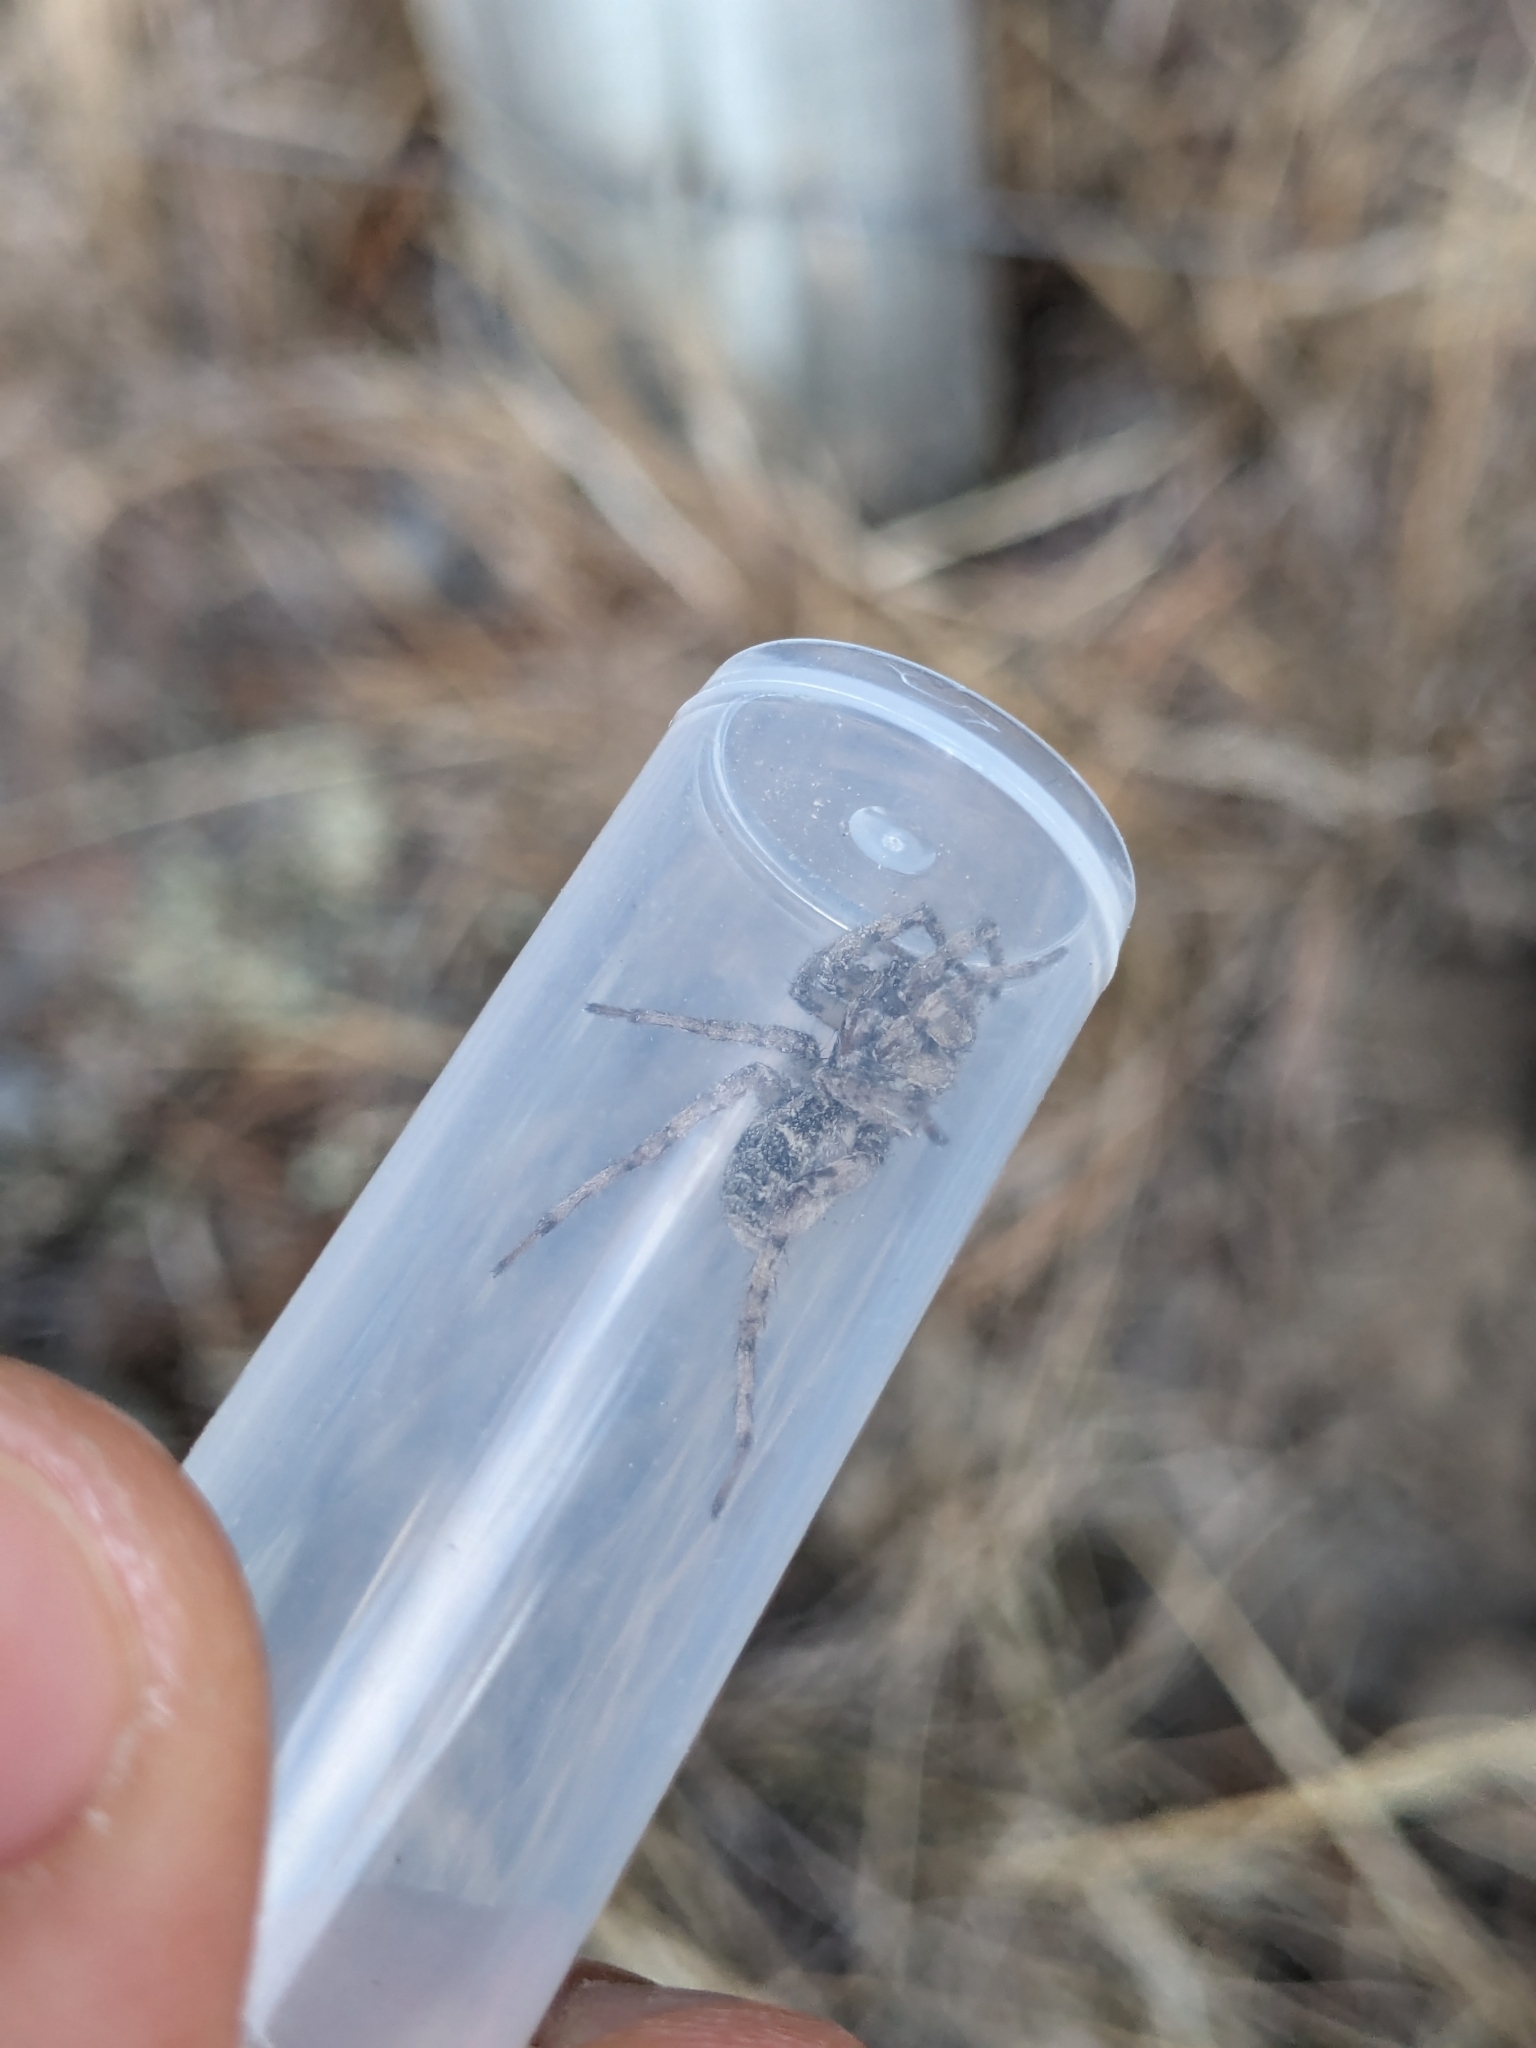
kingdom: Animalia
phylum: Arthropoda
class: Arachnida
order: Araneae
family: Lycosidae
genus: Notocosa
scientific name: Notocosa bellicosa
